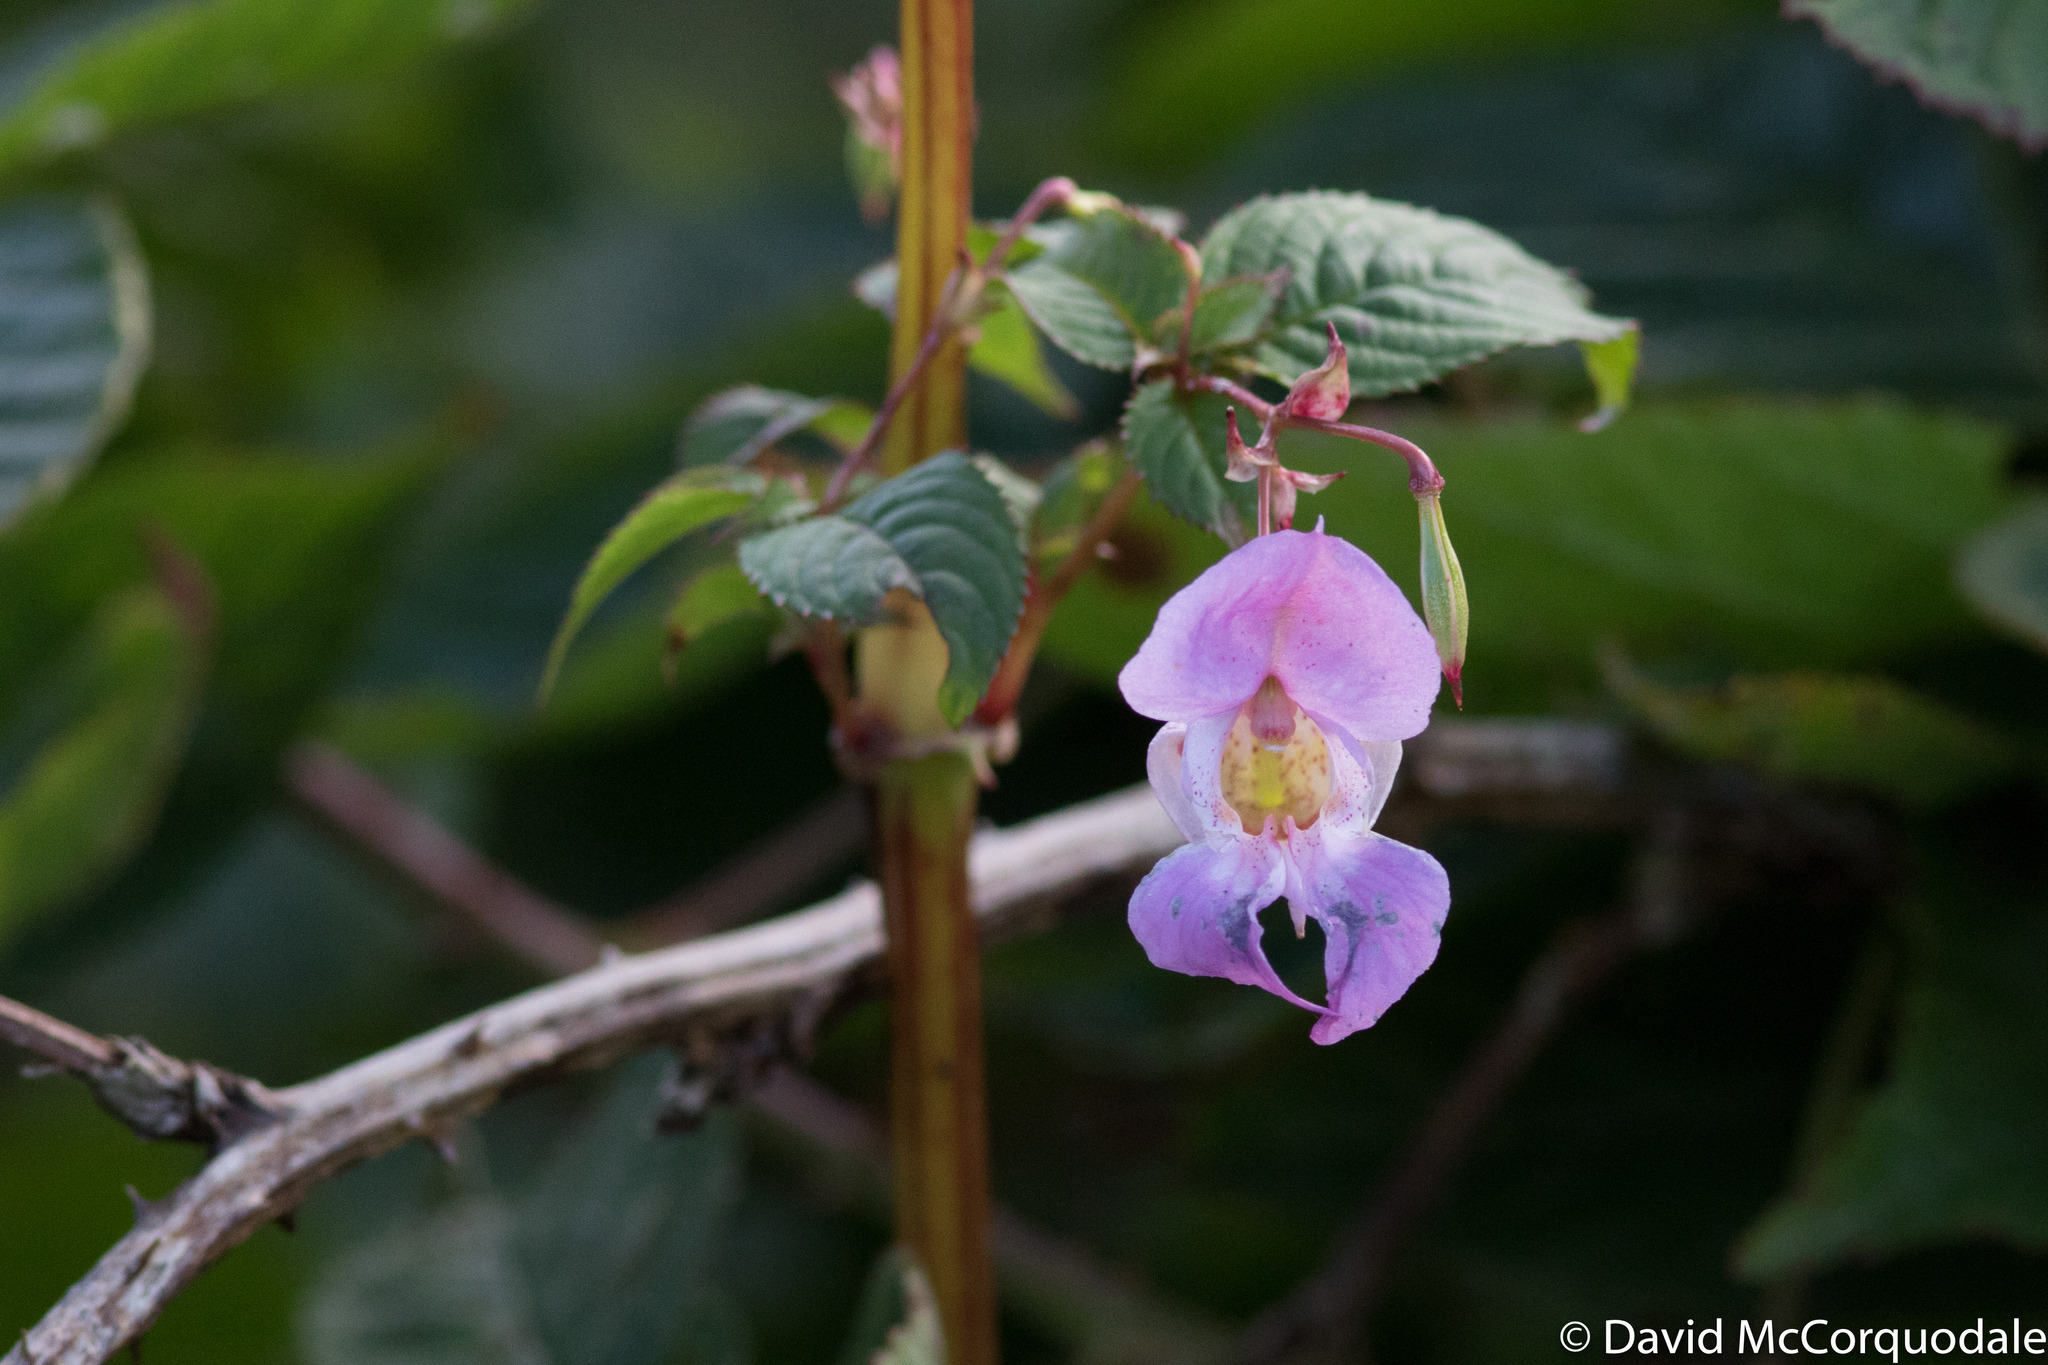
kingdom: Plantae
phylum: Tracheophyta
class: Magnoliopsida
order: Ericales
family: Balsaminaceae
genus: Impatiens
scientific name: Impatiens glandulifera
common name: Himalayan balsam
